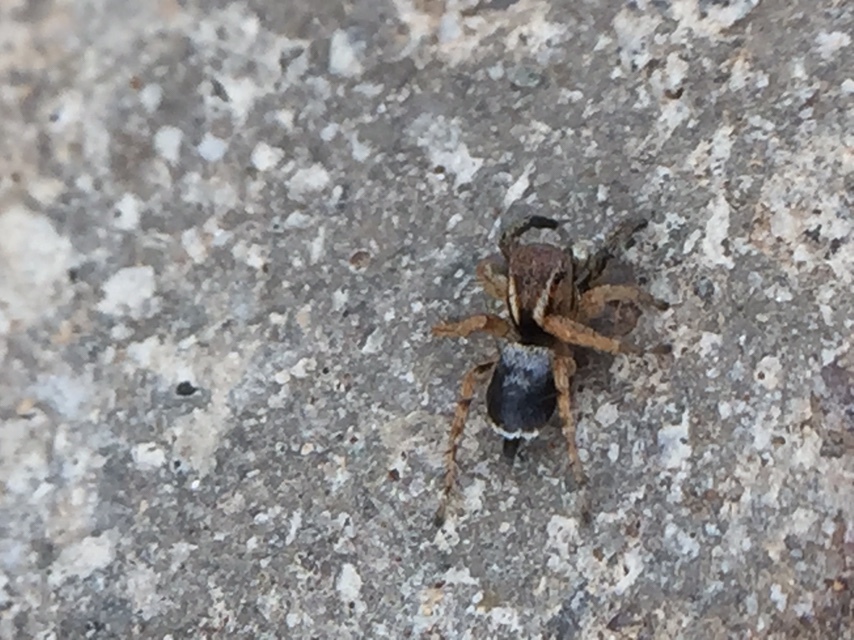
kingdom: Animalia
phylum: Arthropoda
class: Arachnida
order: Araneae
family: Salticidae
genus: Stenaelurillus
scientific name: Stenaelurillus sarojinae
